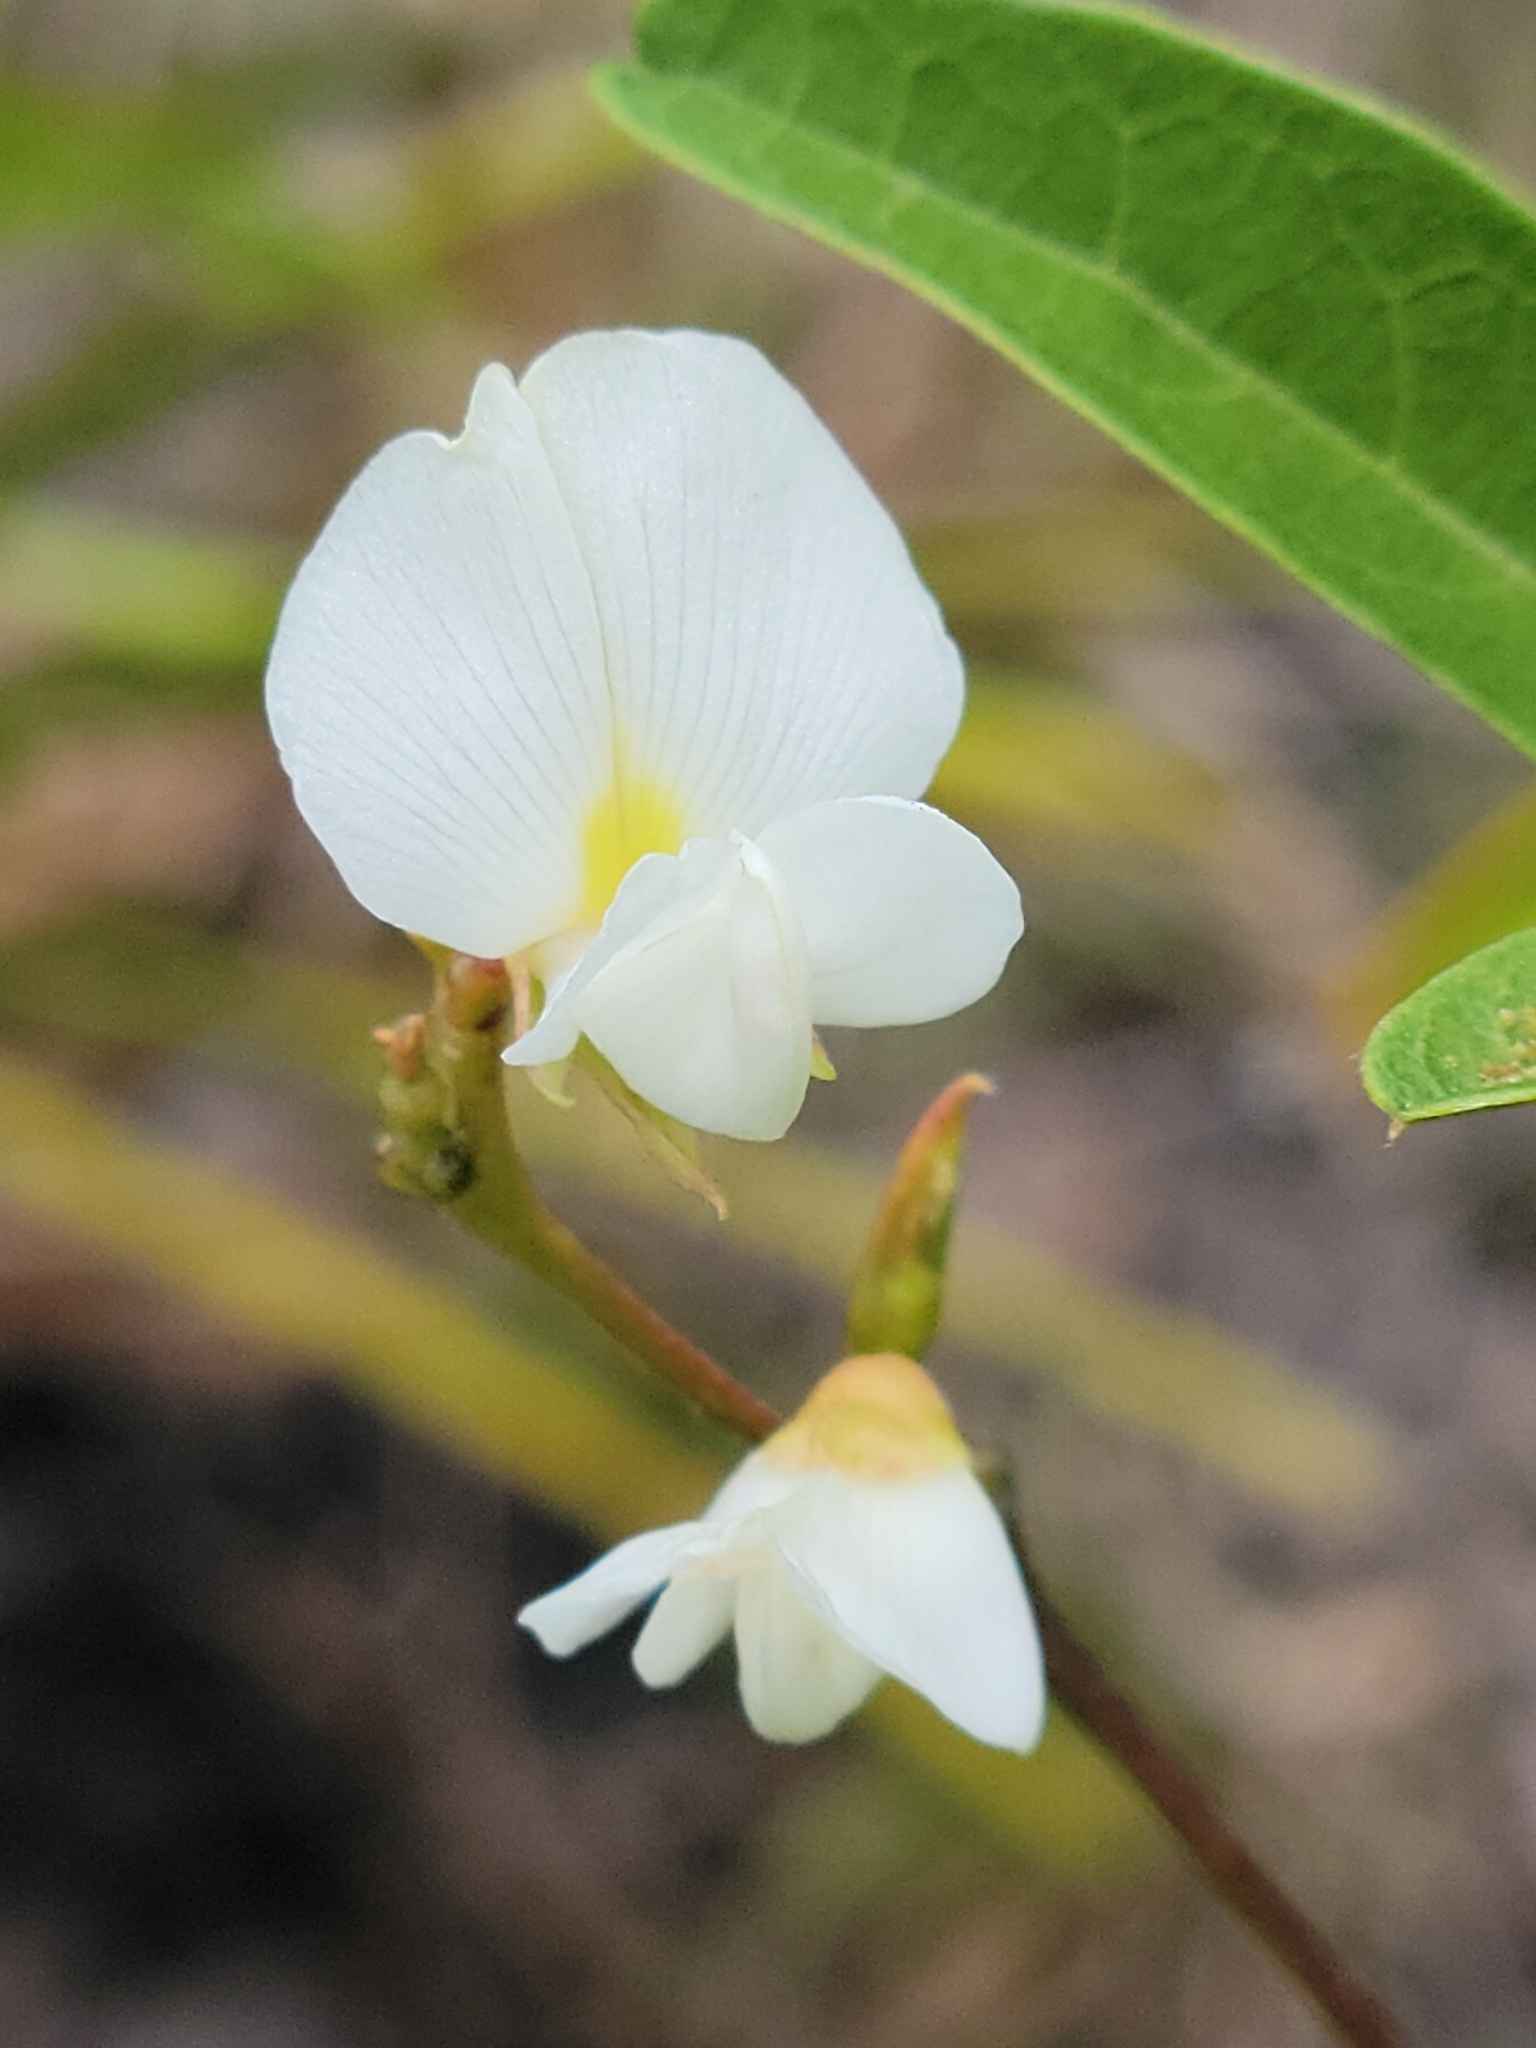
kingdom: Plantae
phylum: Tracheophyta
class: Magnoliopsida
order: Fabales
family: Fabaceae
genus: Galactia
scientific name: Galactia elliottii
